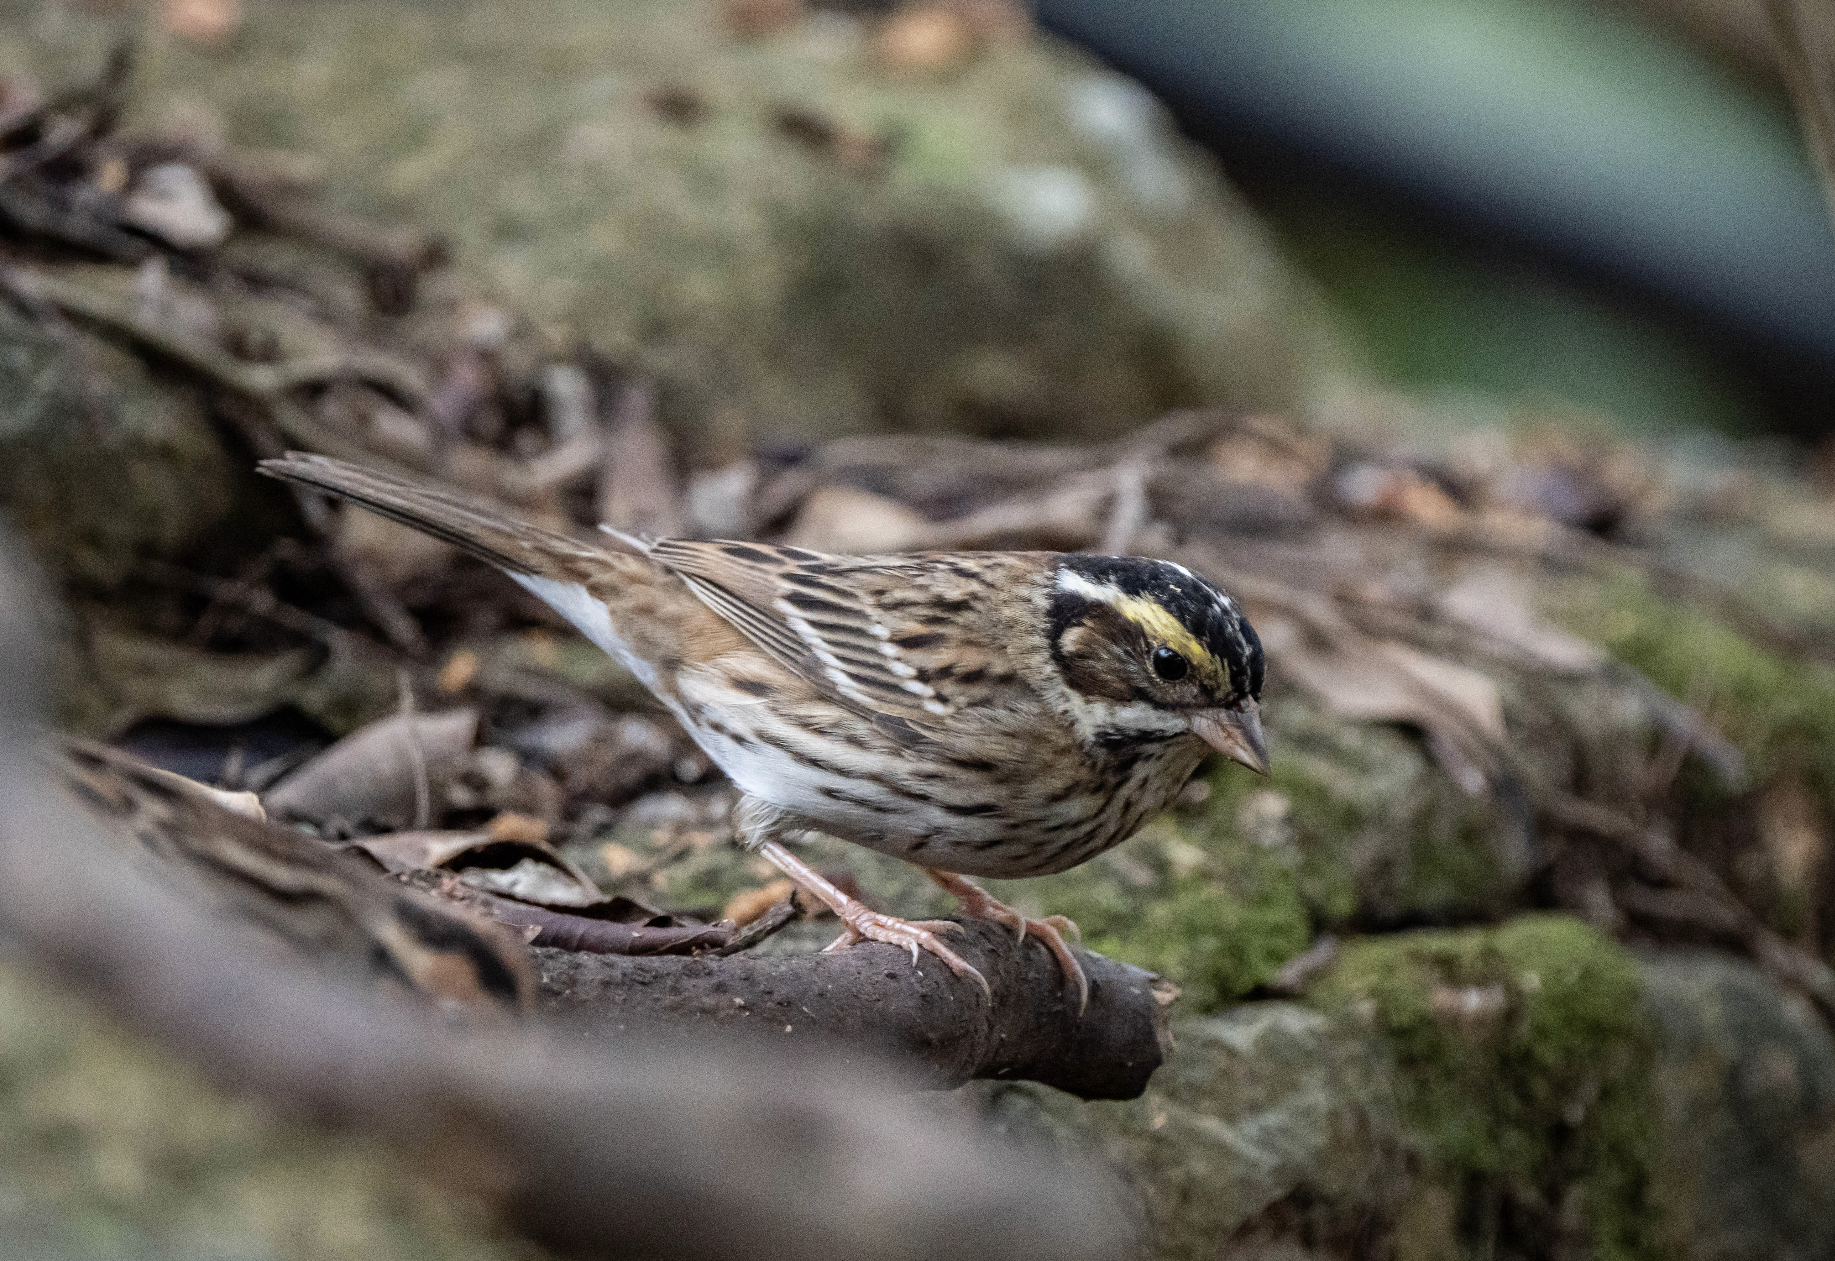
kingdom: Animalia
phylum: Chordata
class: Aves
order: Passeriformes
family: Emberizidae
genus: Emberiza
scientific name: Emberiza chrysophrys
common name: Yellow-browed bunting
